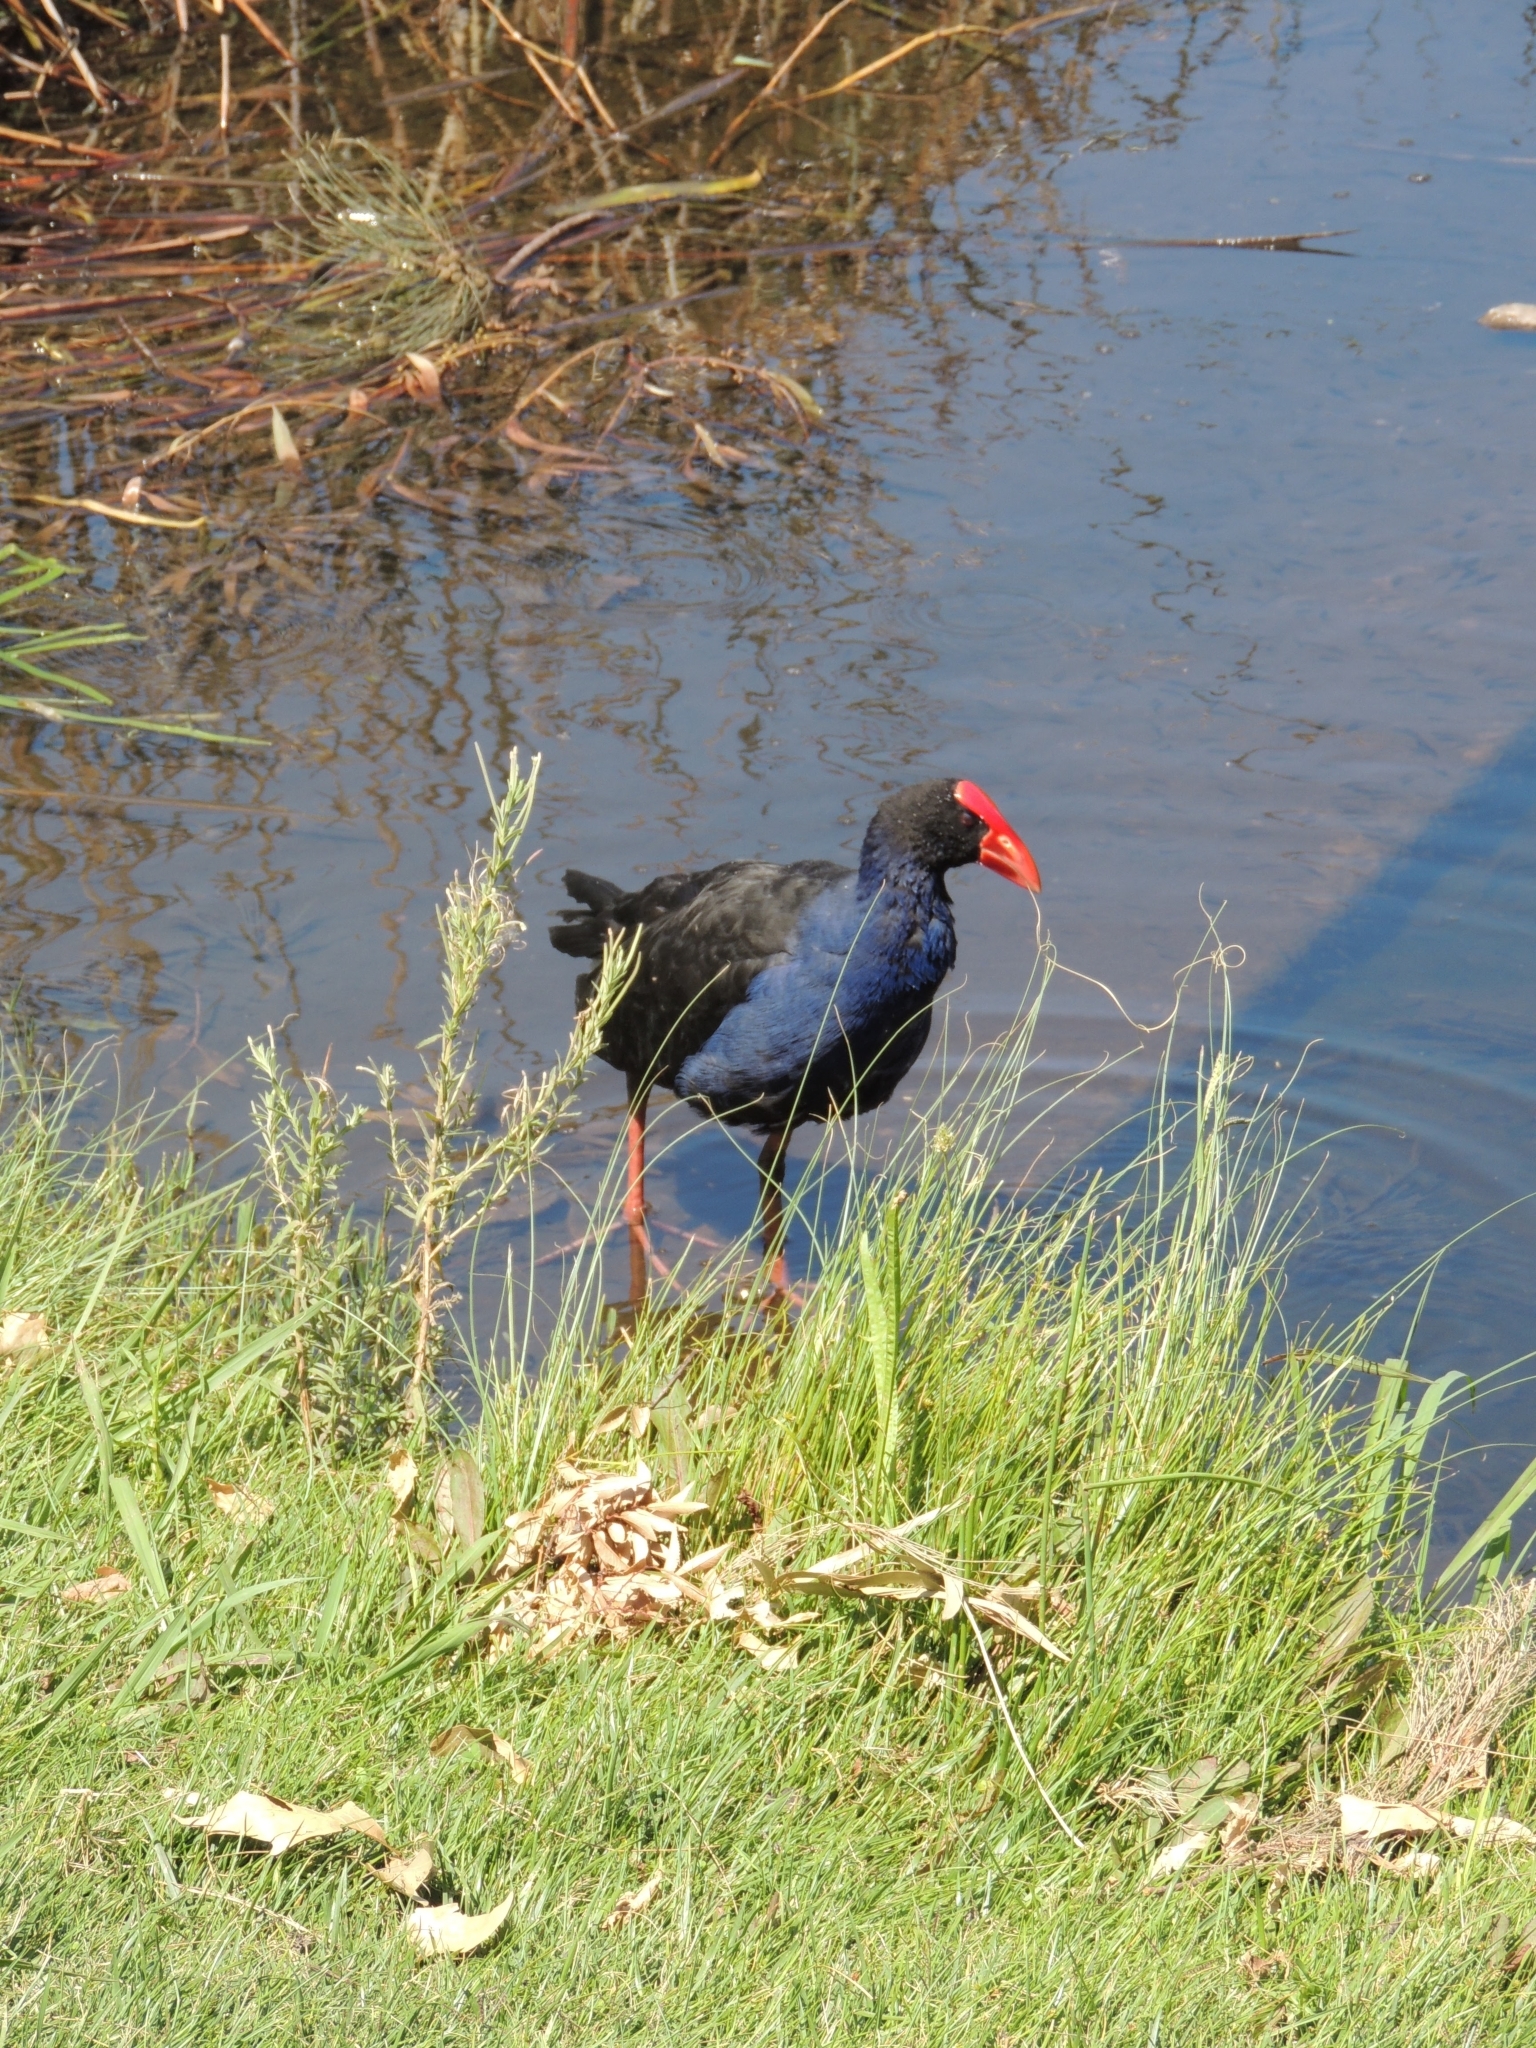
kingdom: Animalia
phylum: Chordata
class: Aves
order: Gruiformes
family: Rallidae
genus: Porphyrio
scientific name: Porphyrio melanotus
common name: Australasian swamphen
